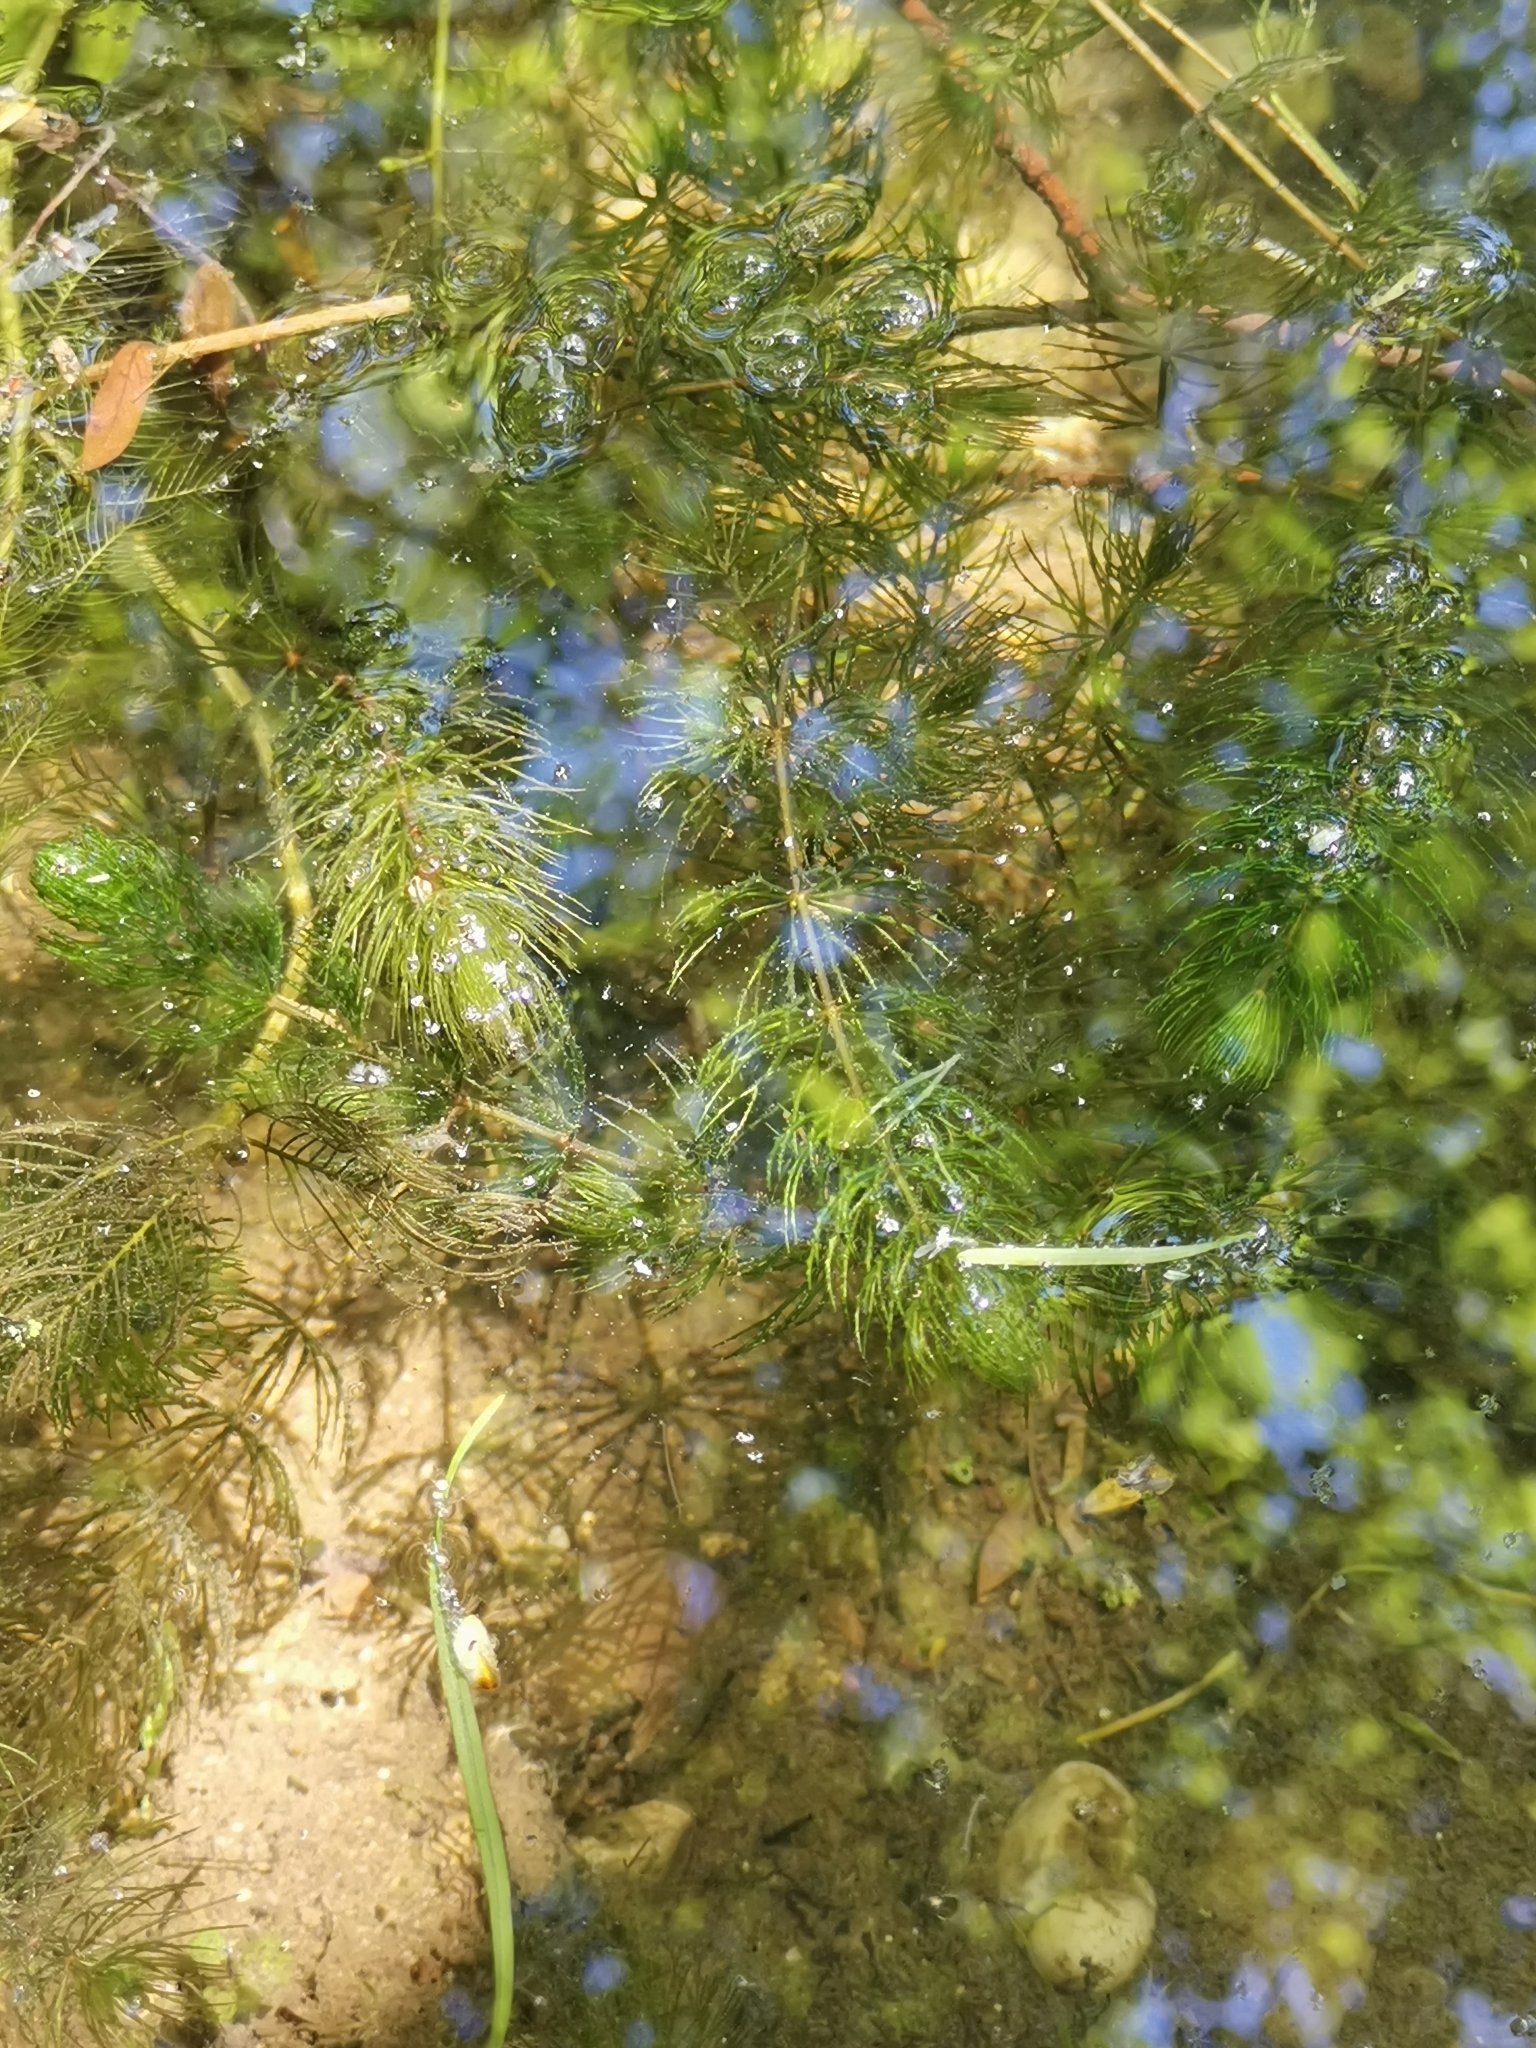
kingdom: Plantae
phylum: Tracheophyta
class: Magnoliopsida
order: Ceratophyllales
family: Ceratophyllaceae
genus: Ceratophyllum
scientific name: Ceratophyllum demersum
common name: Rigid hornwort
